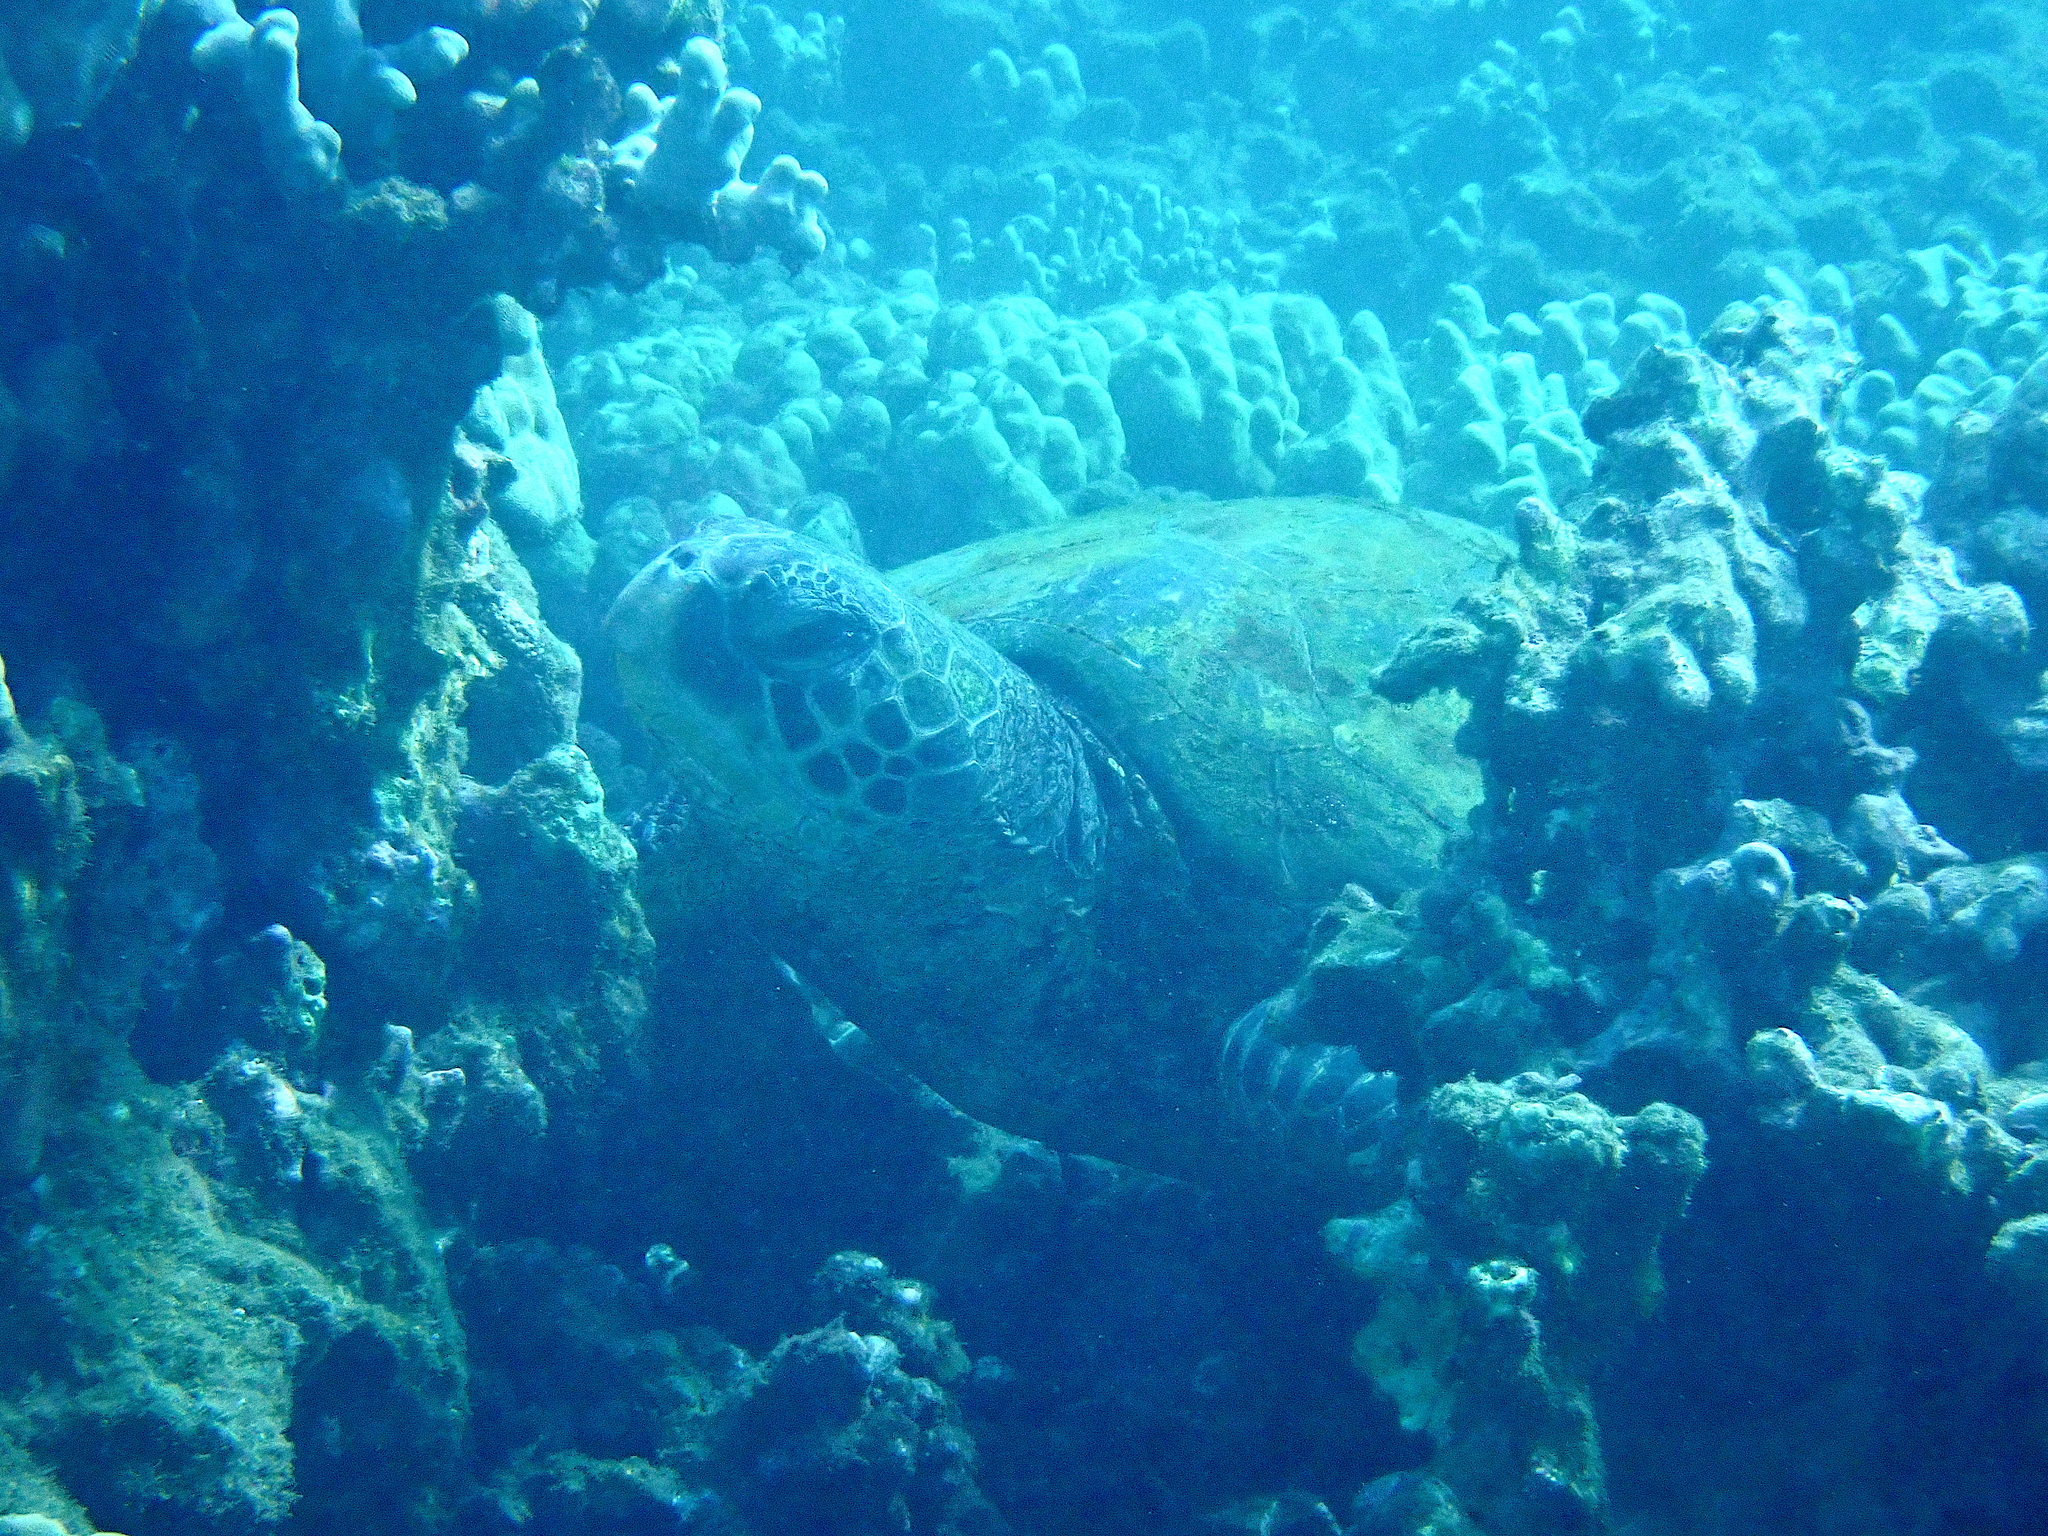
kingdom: Animalia
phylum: Chordata
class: Testudines
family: Cheloniidae
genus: Chelonia
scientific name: Chelonia mydas
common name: Green turtle
